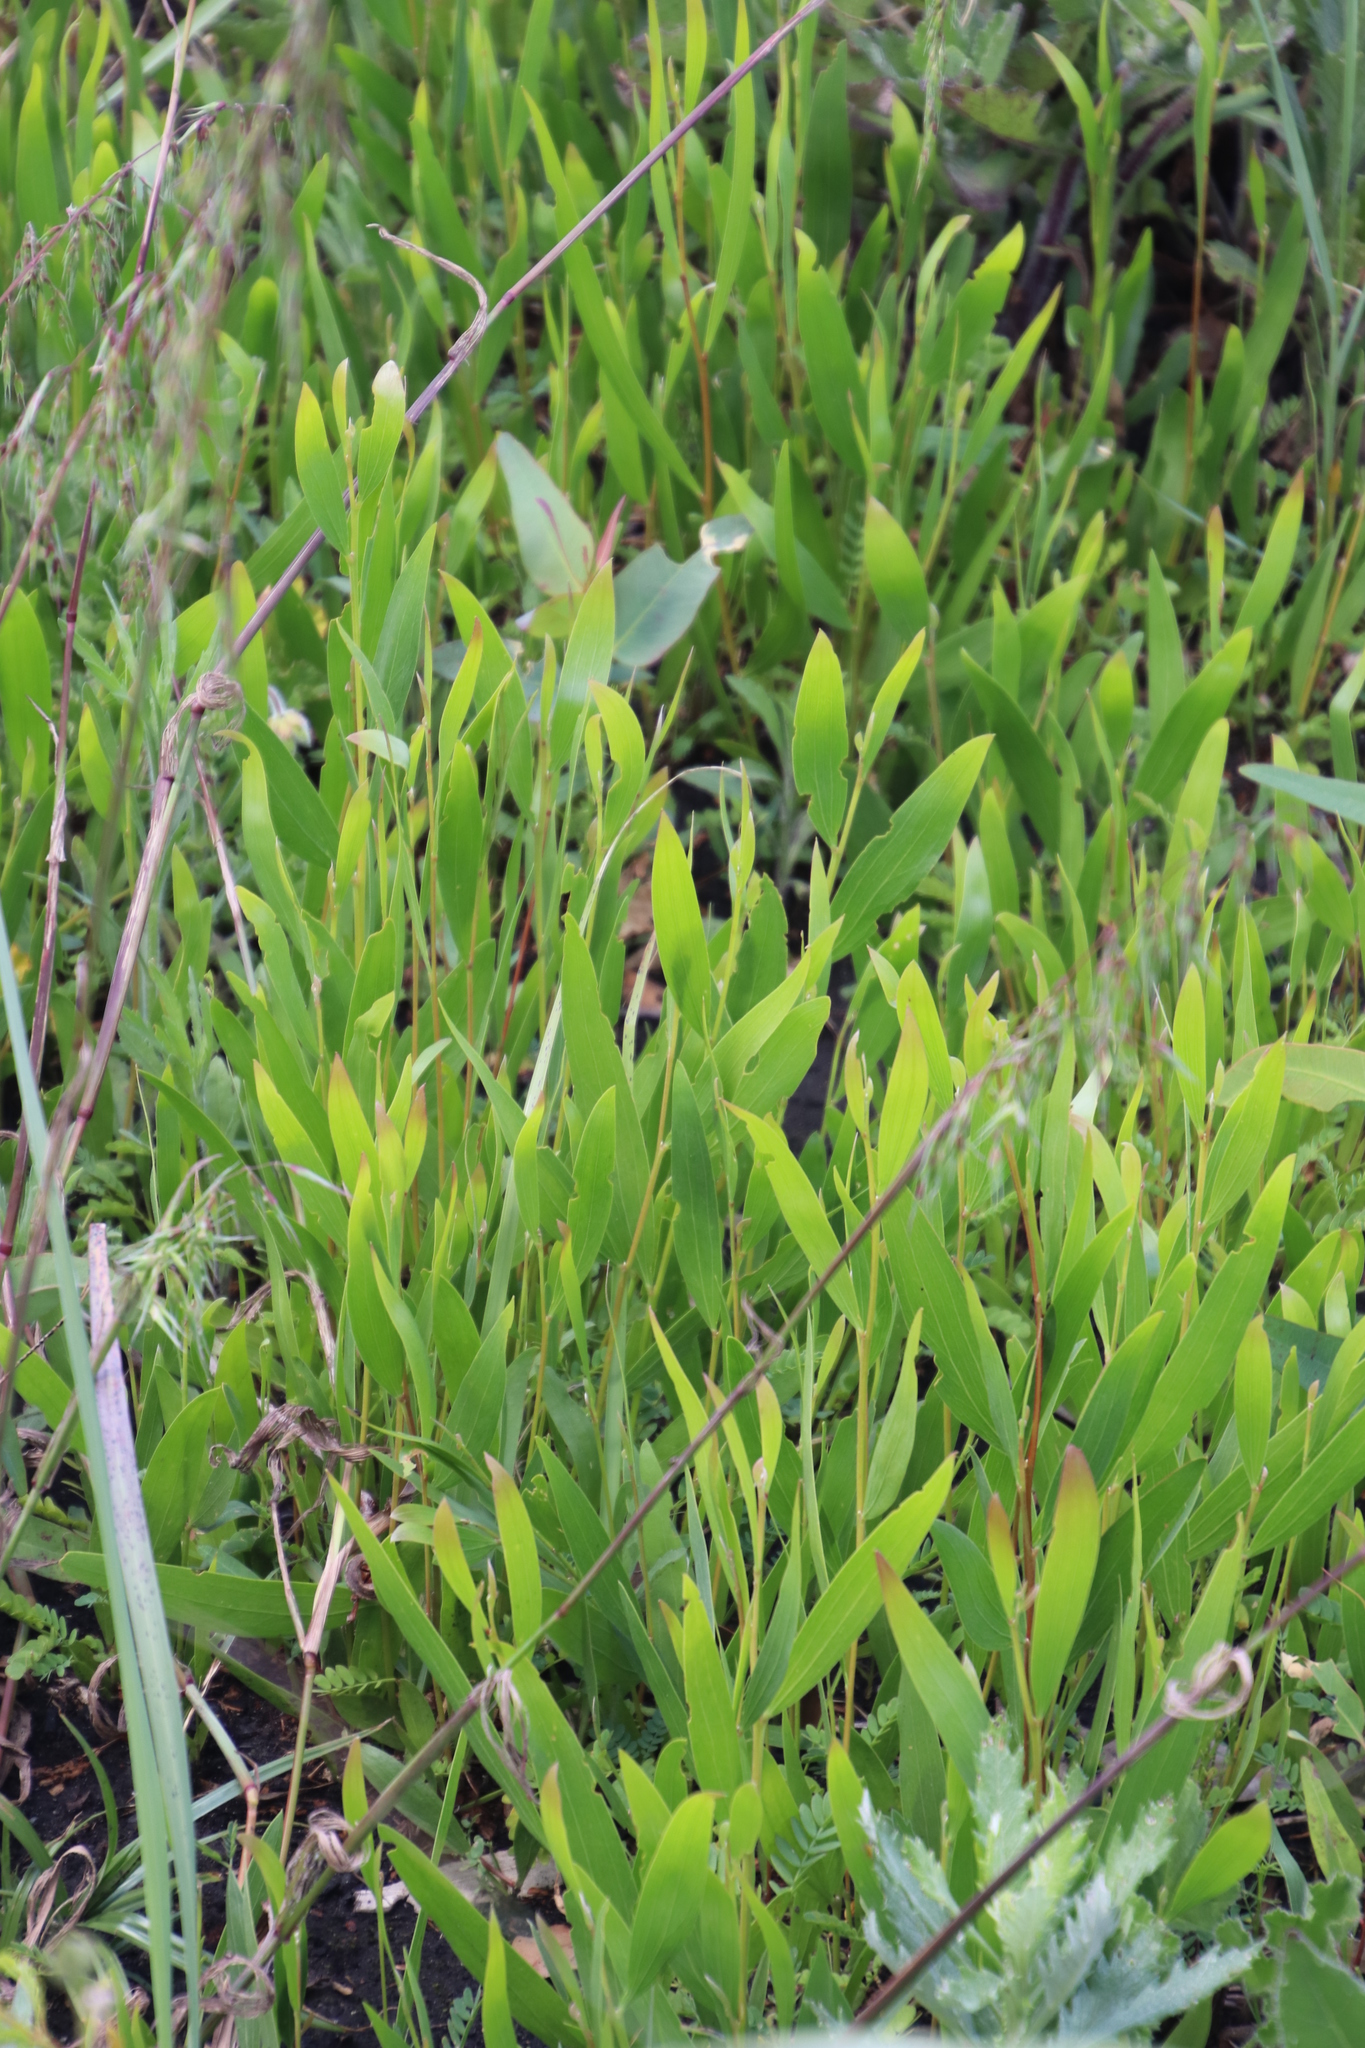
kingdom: Plantae
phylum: Tracheophyta
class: Magnoliopsida
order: Fabales
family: Fabaceae
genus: Acacia
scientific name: Acacia longifolia
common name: Sydney golden wattle
